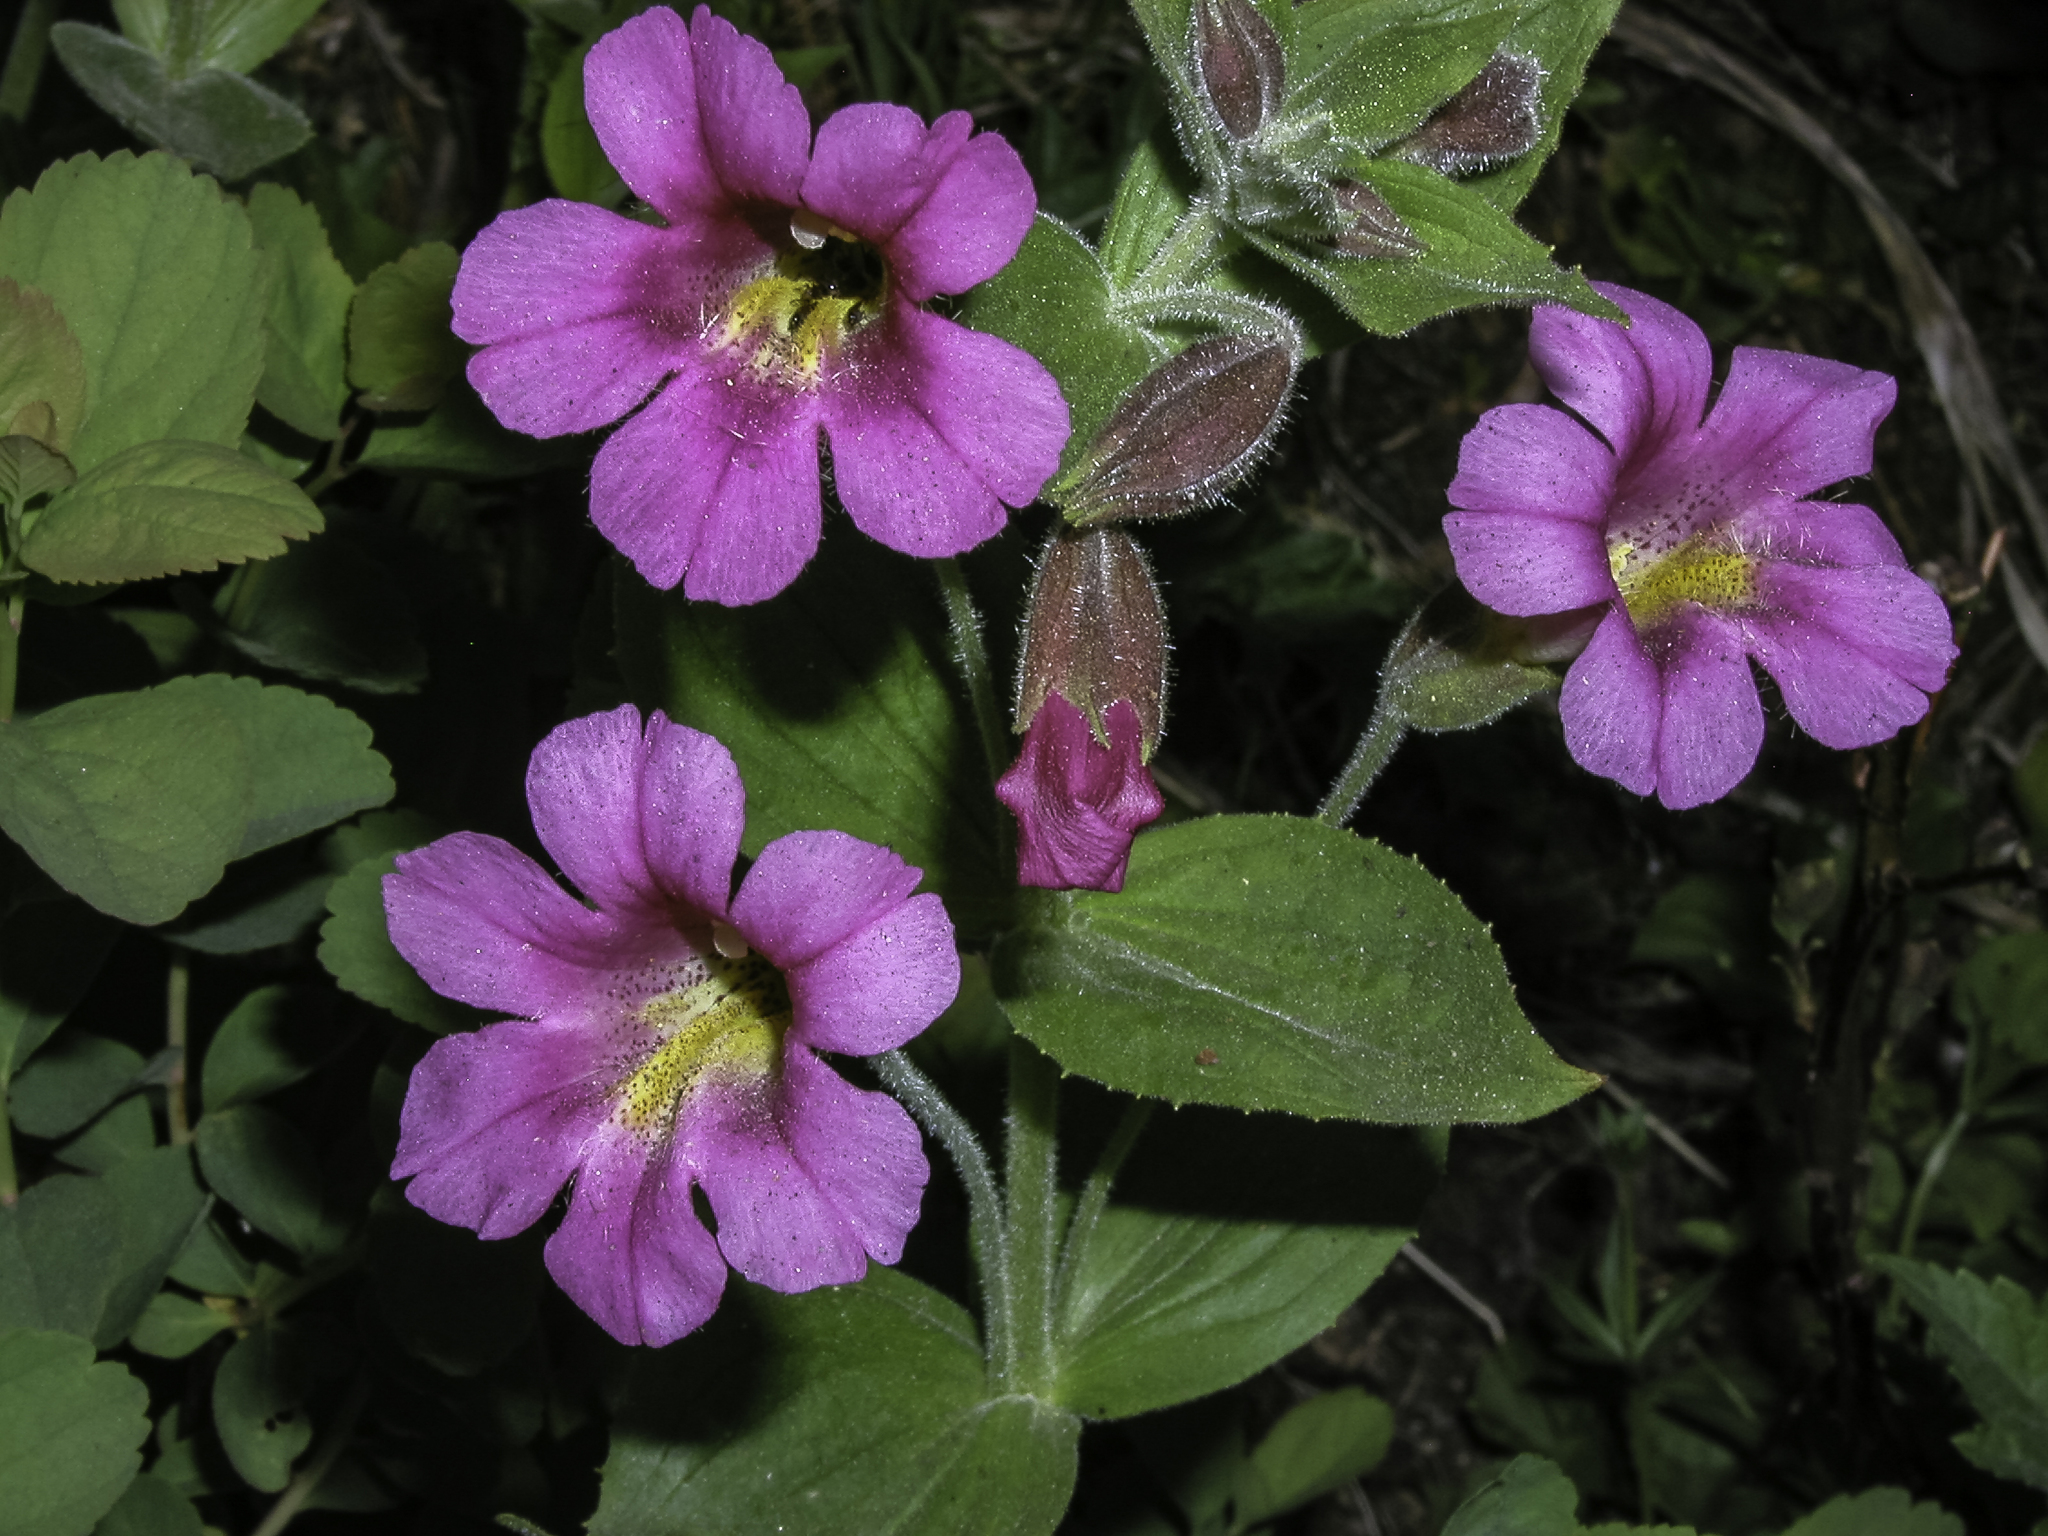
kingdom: Plantae
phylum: Tracheophyta
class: Magnoliopsida
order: Lamiales
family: Phrymaceae
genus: Erythranthe
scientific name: Erythranthe lewisii
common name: Lewis's monkey-flower
